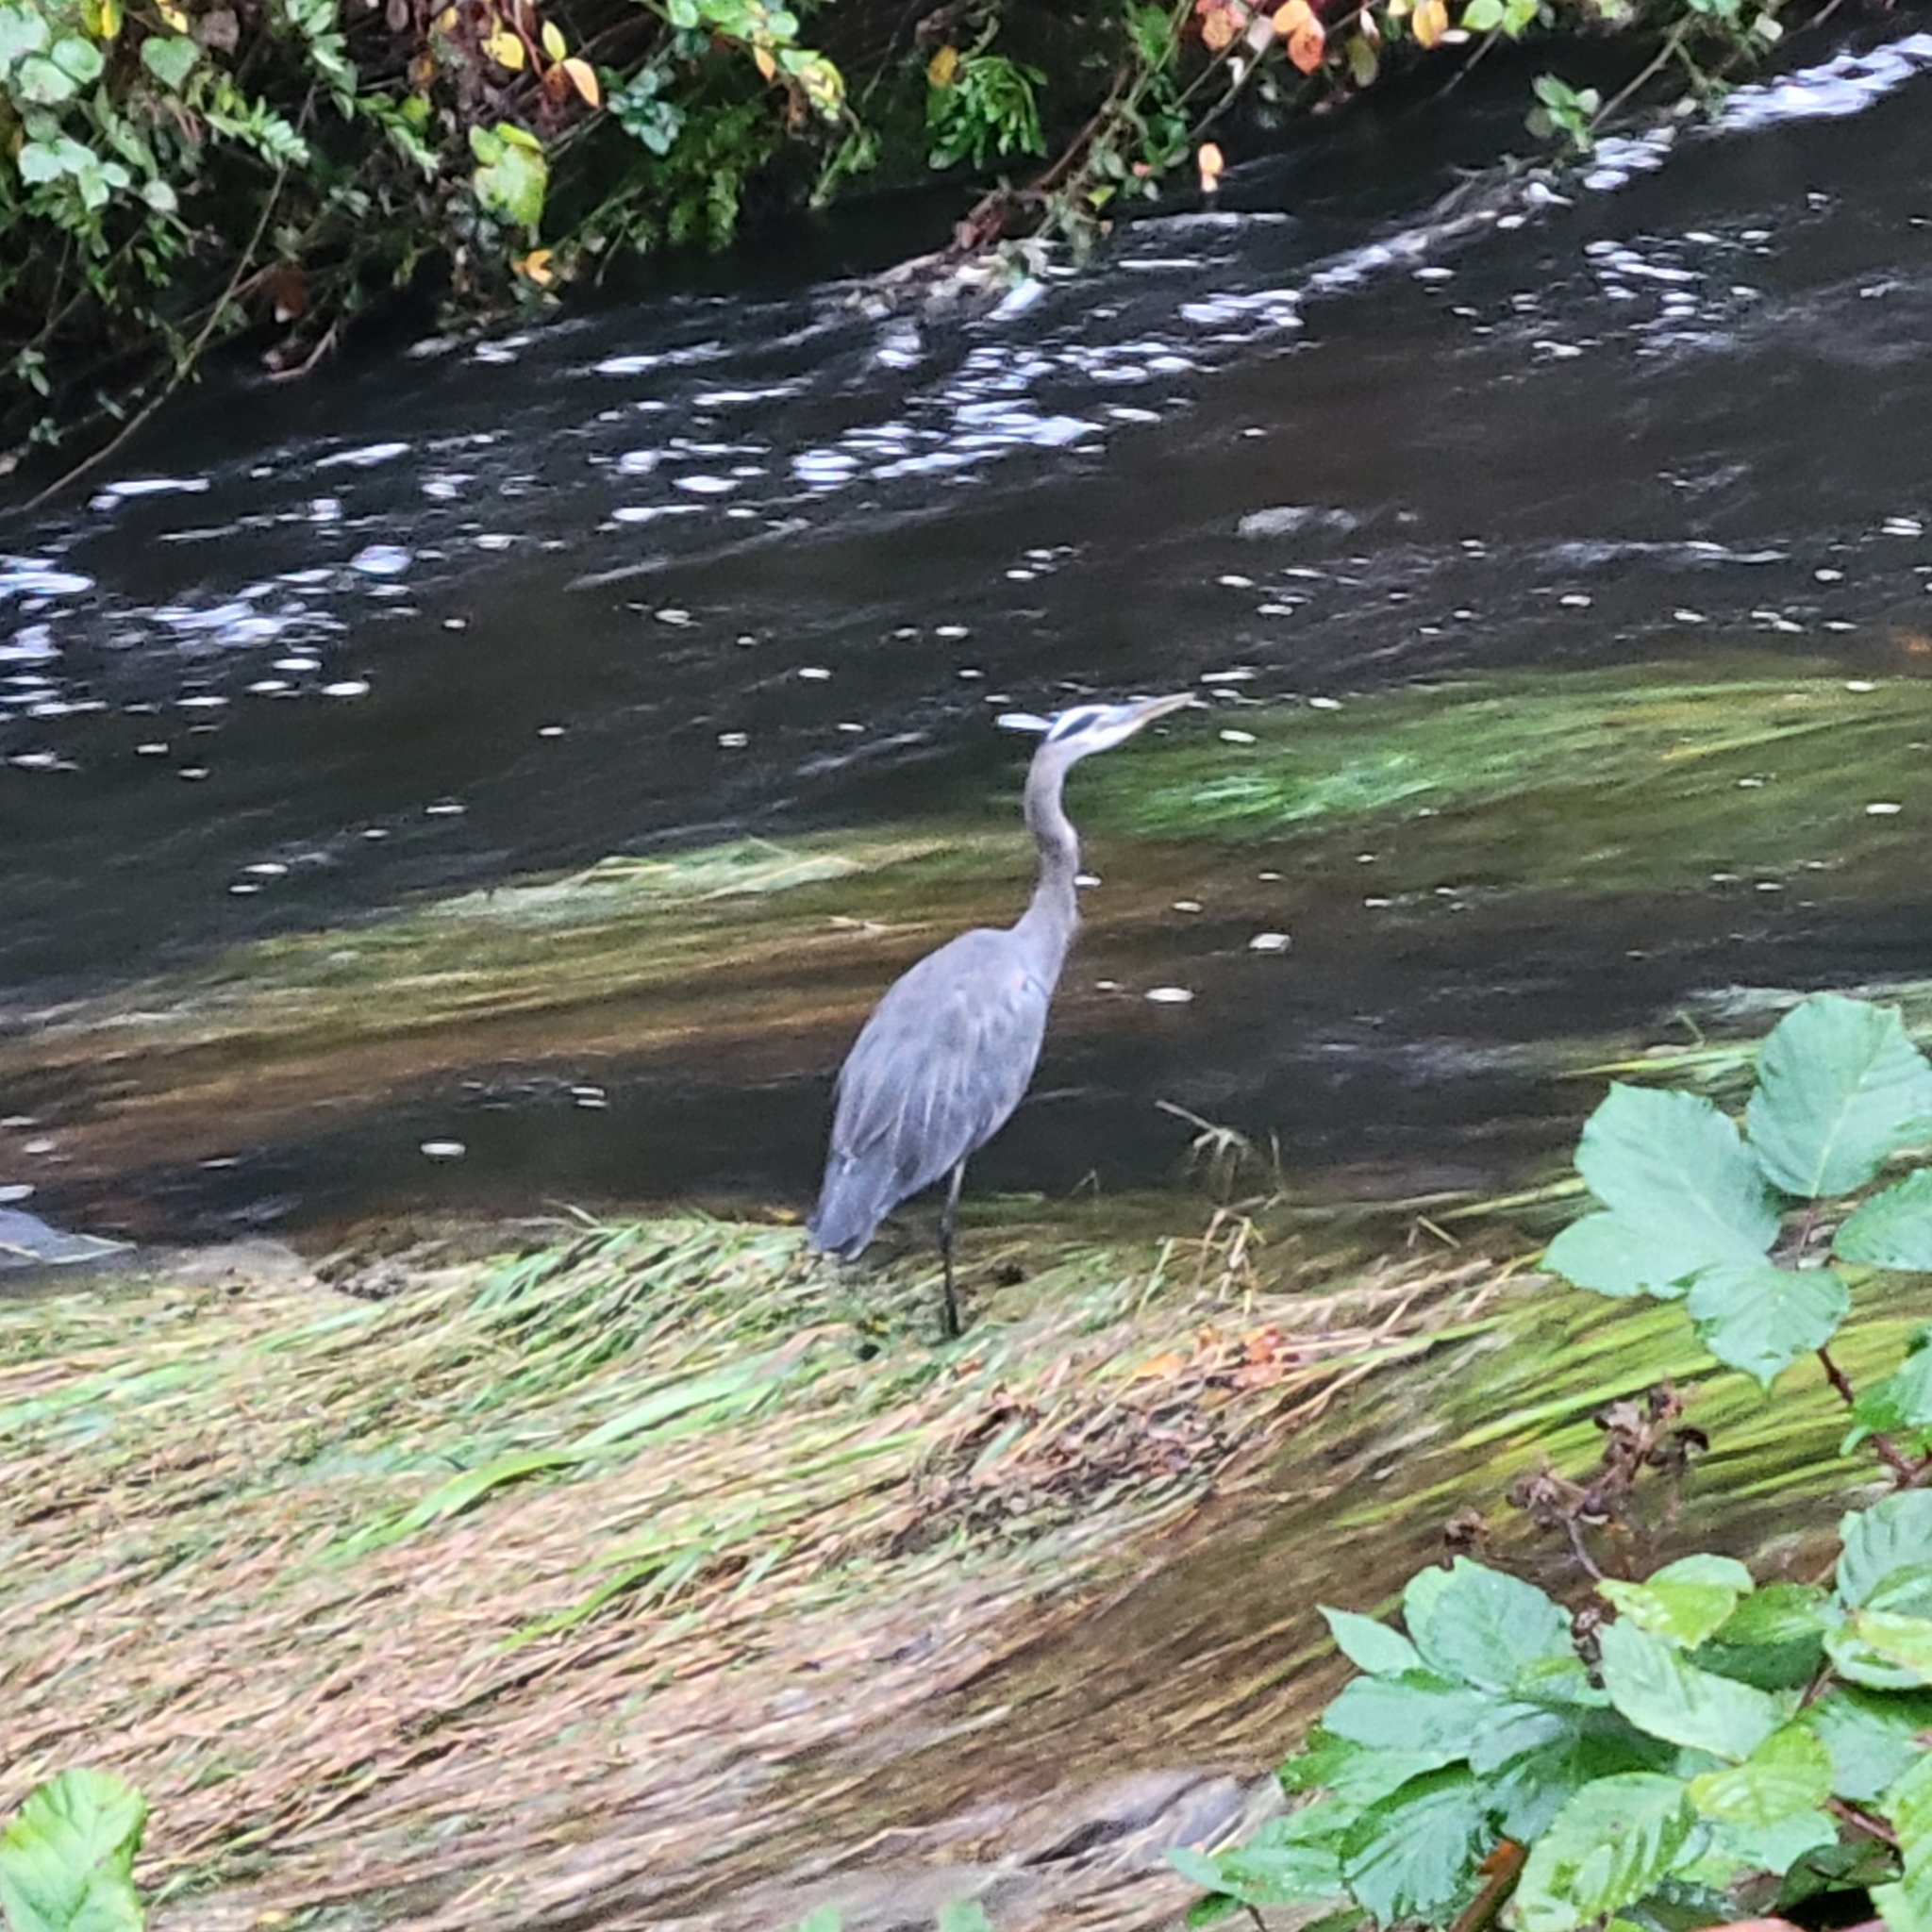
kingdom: Animalia
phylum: Chordata
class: Aves
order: Pelecaniformes
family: Ardeidae
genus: Ardea
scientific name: Ardea herodias
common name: Great blue heron
